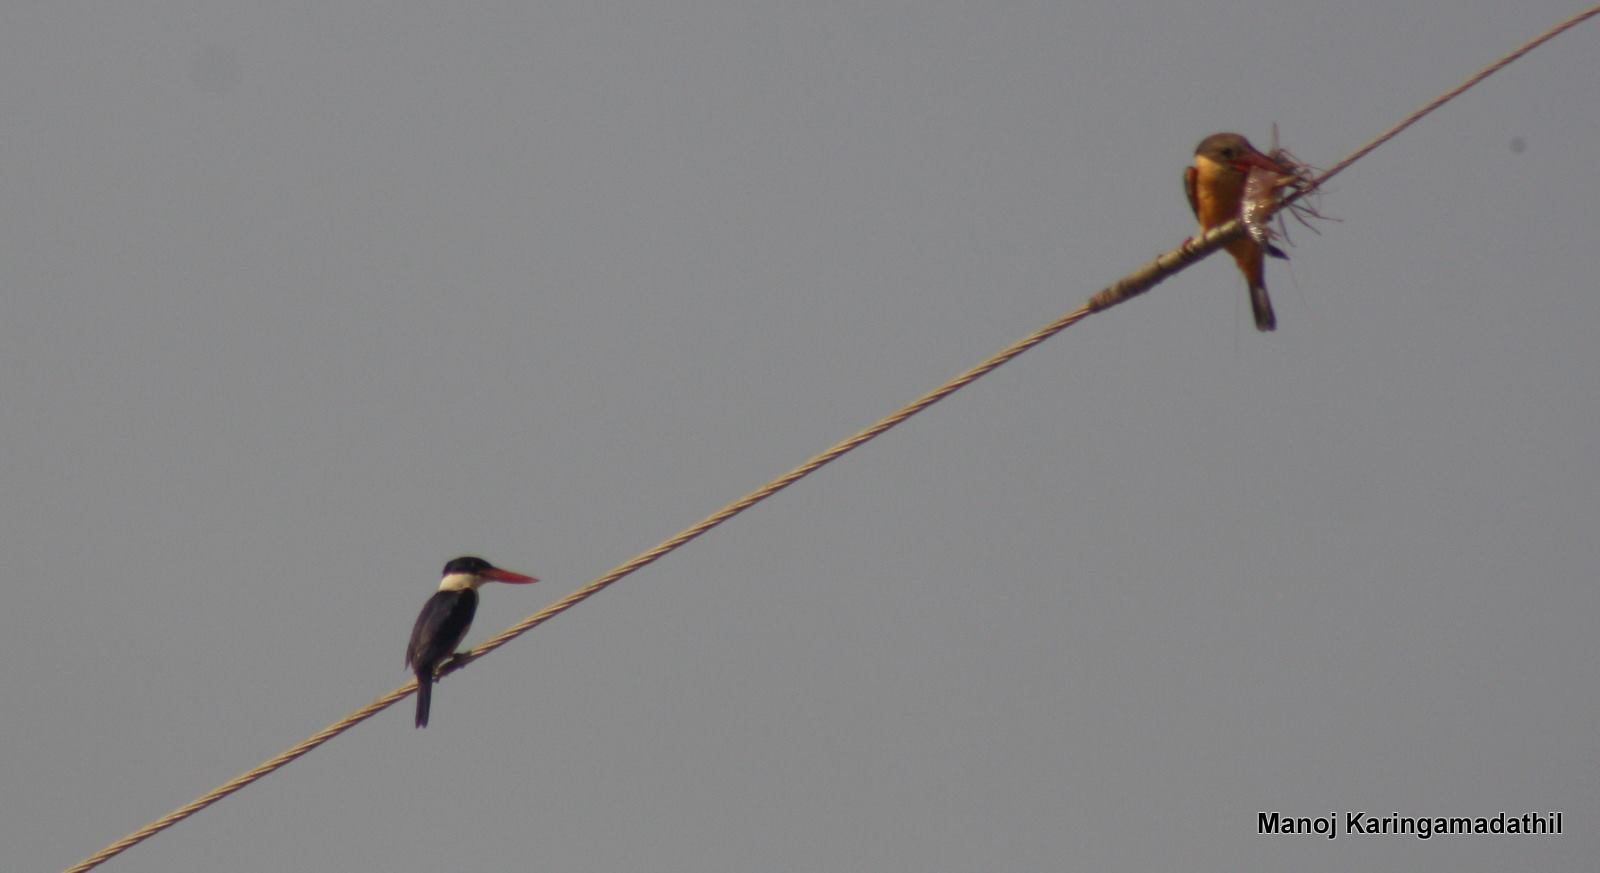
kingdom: Animalia
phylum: Chordata
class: Aves
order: Coraciiformes
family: Alcedinidae
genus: Halcyon
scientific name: Halcyon pileata
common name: Black-capped kingfisher
